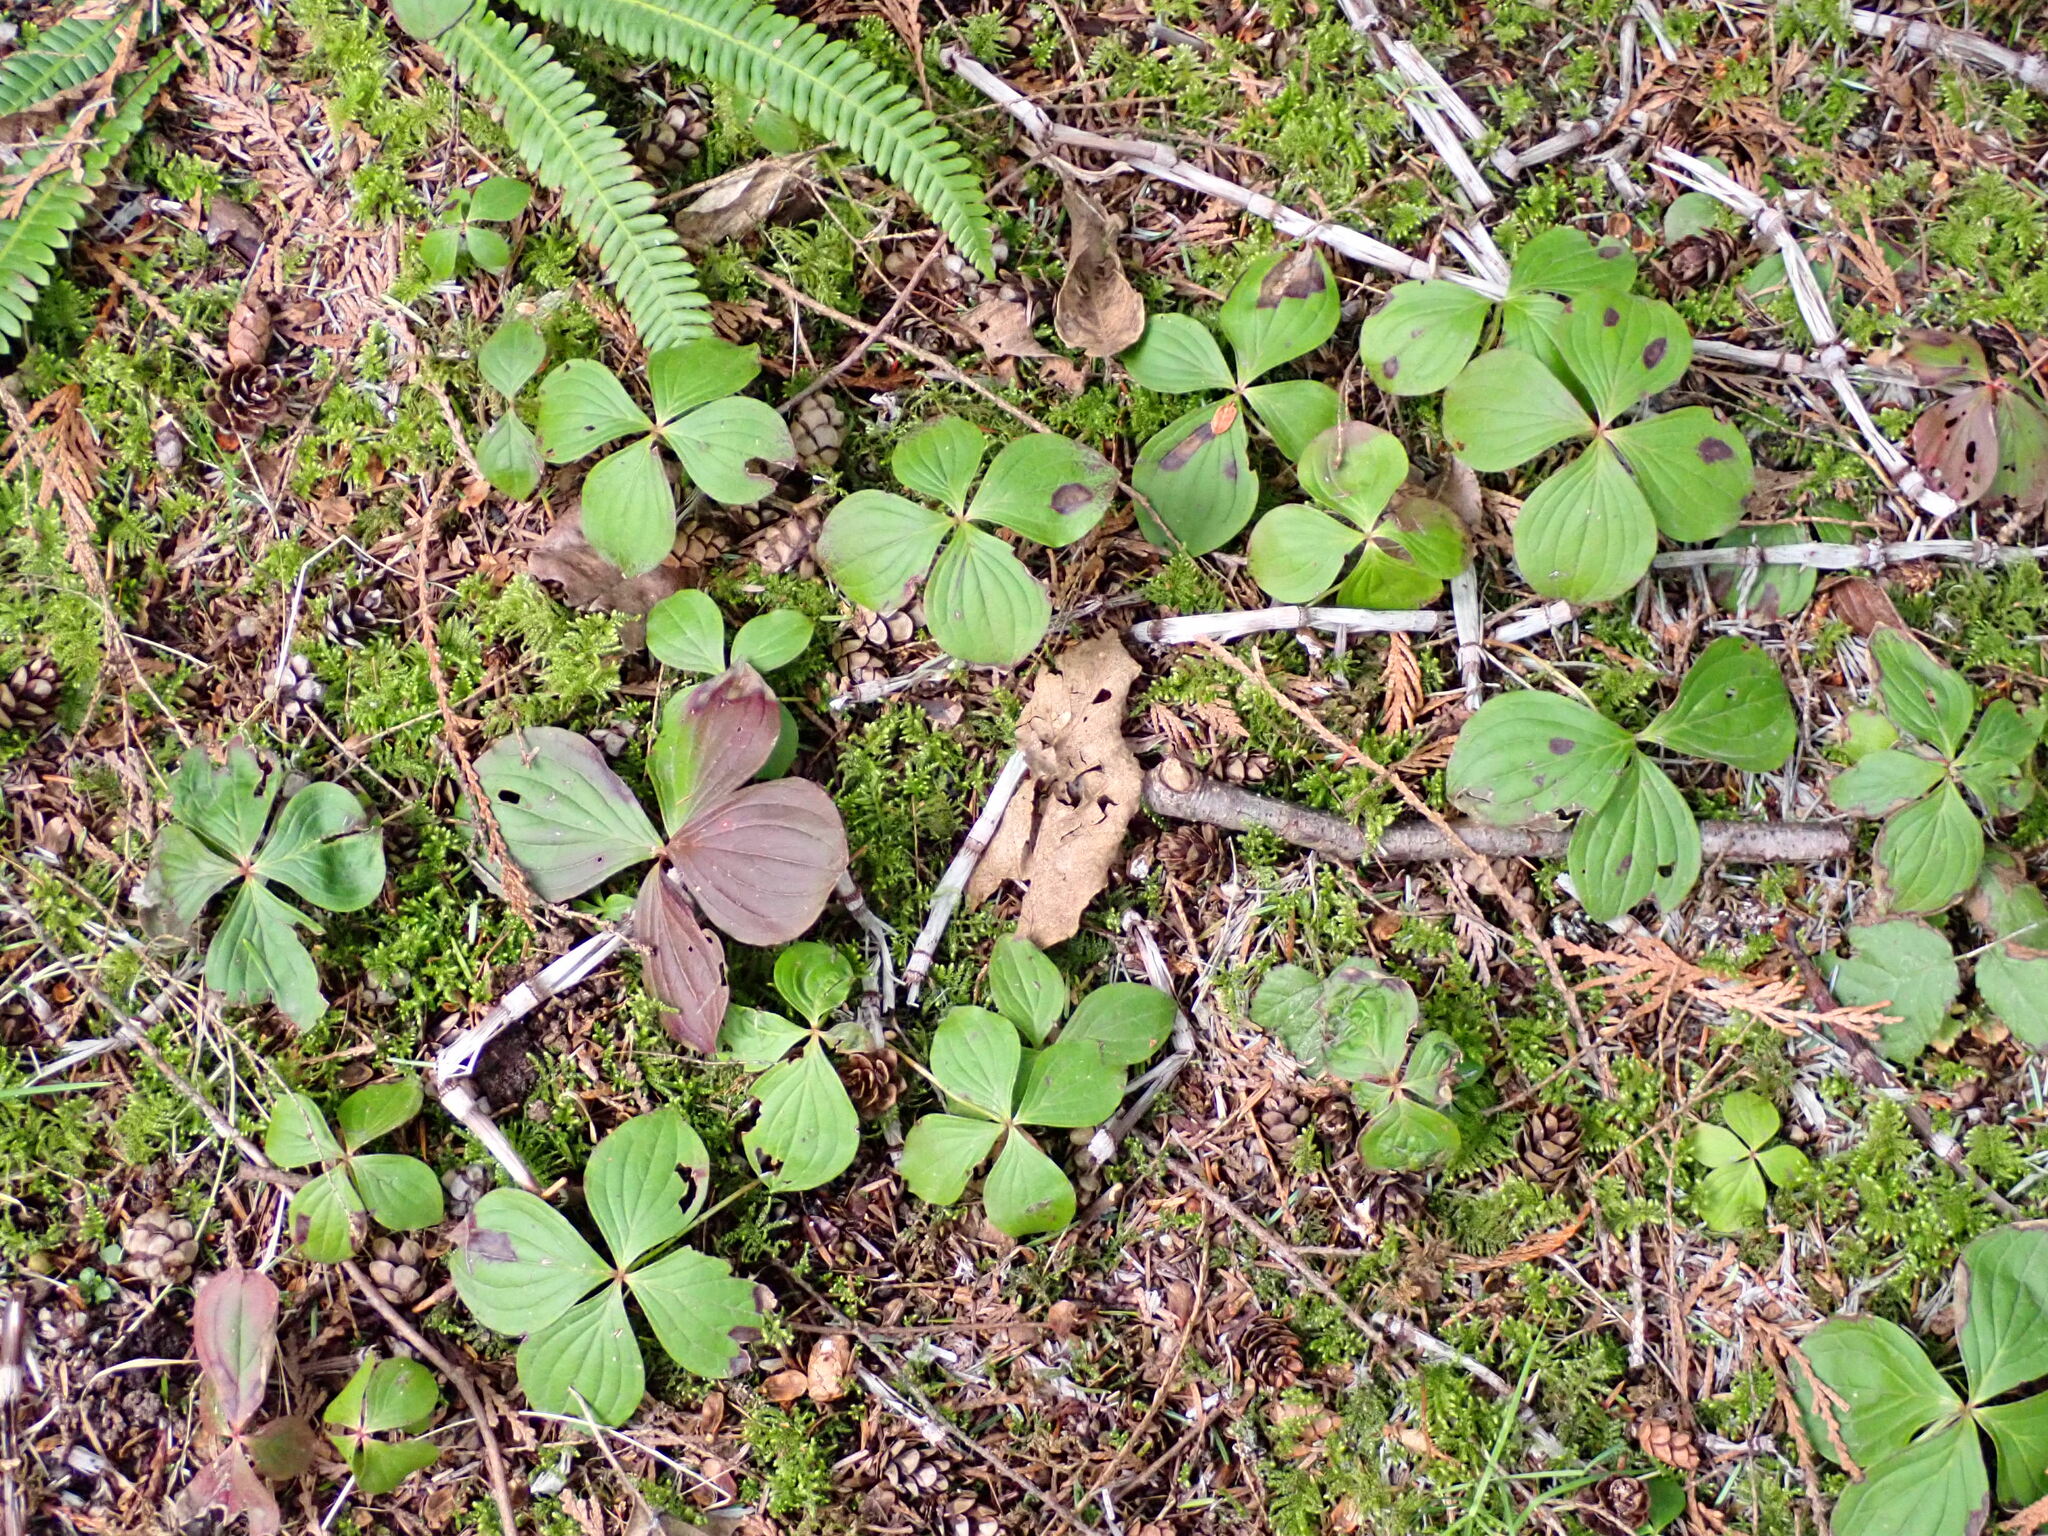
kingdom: Plantae
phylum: Tracheophyta
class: Magnoliopsida
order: Cornales
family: Cornaceae
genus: Cornus
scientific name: Cornus unalaschkensis
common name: Alaska bunchberry
